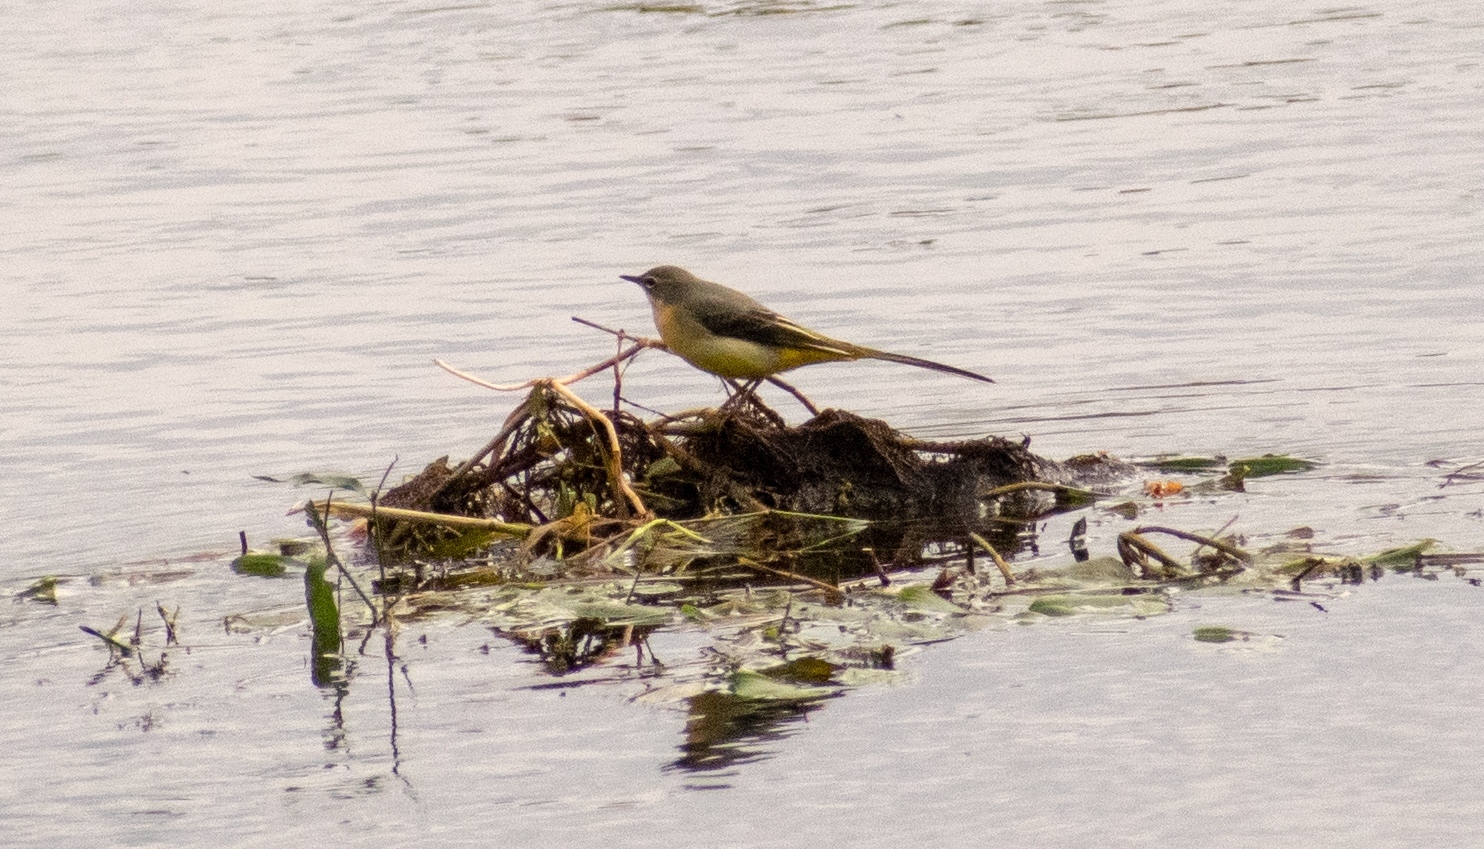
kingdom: Animalia
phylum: Chordata
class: Aves
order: Passeriformes
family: Motacillidae
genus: Motacilla
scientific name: Motacilla cinerea
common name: Grey wagtail
